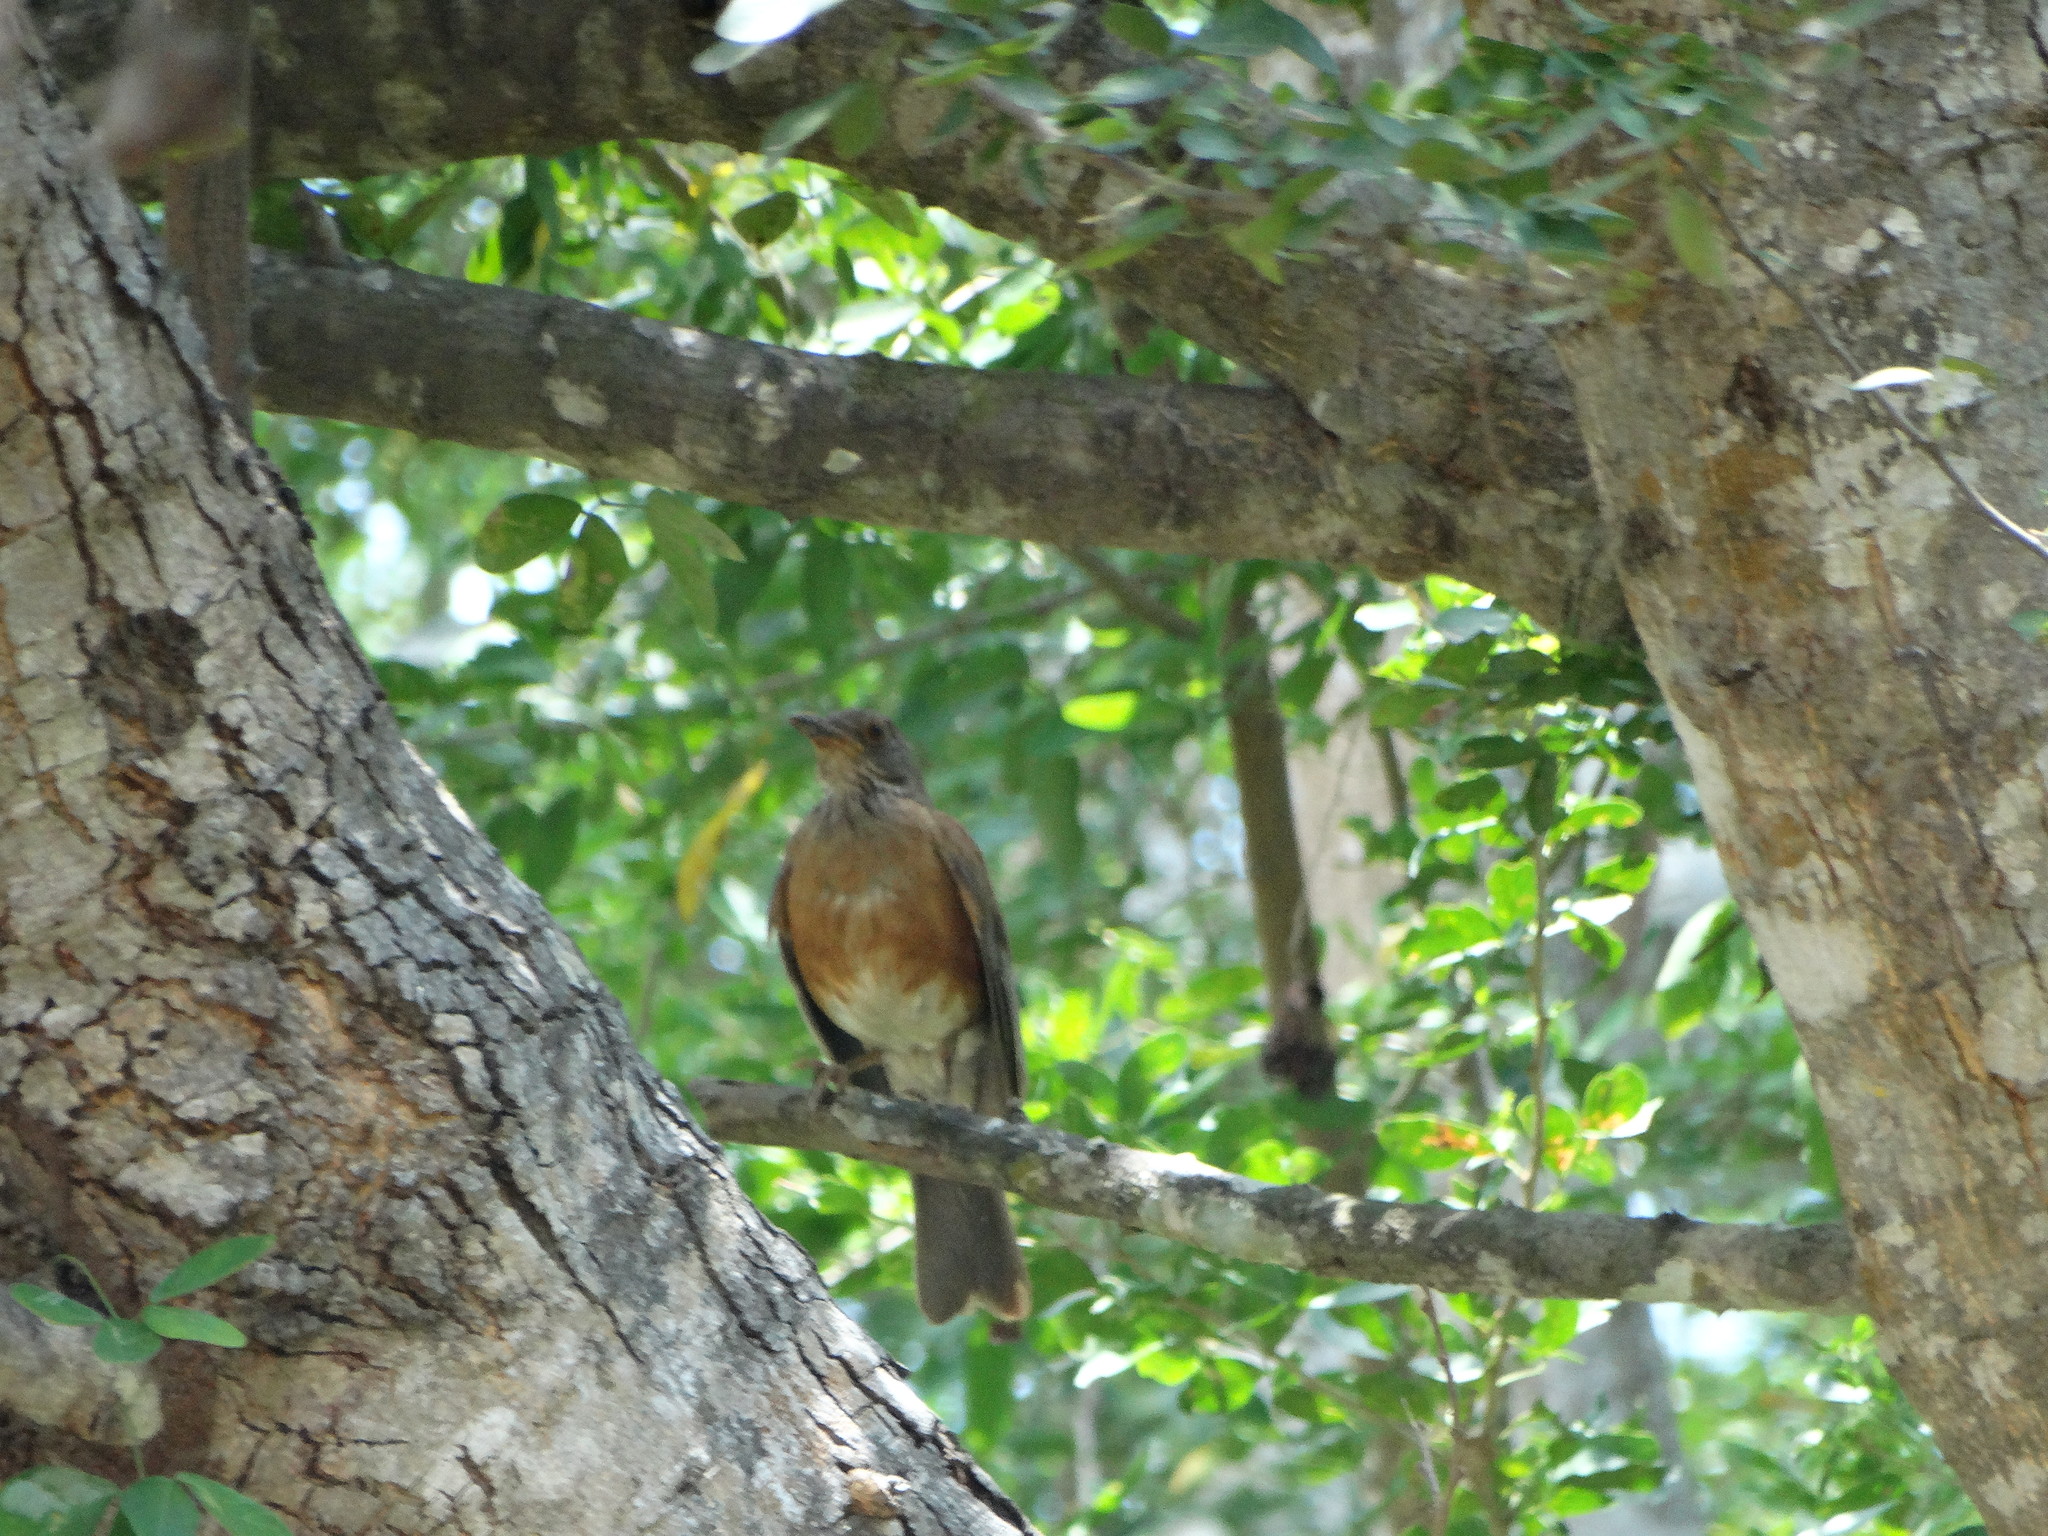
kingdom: Animalia
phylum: Chordata
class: Aves
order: Passeriformes
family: Turdidae
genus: Turdus
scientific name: Turdus rufopalliatus
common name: Rufous-backed robin
